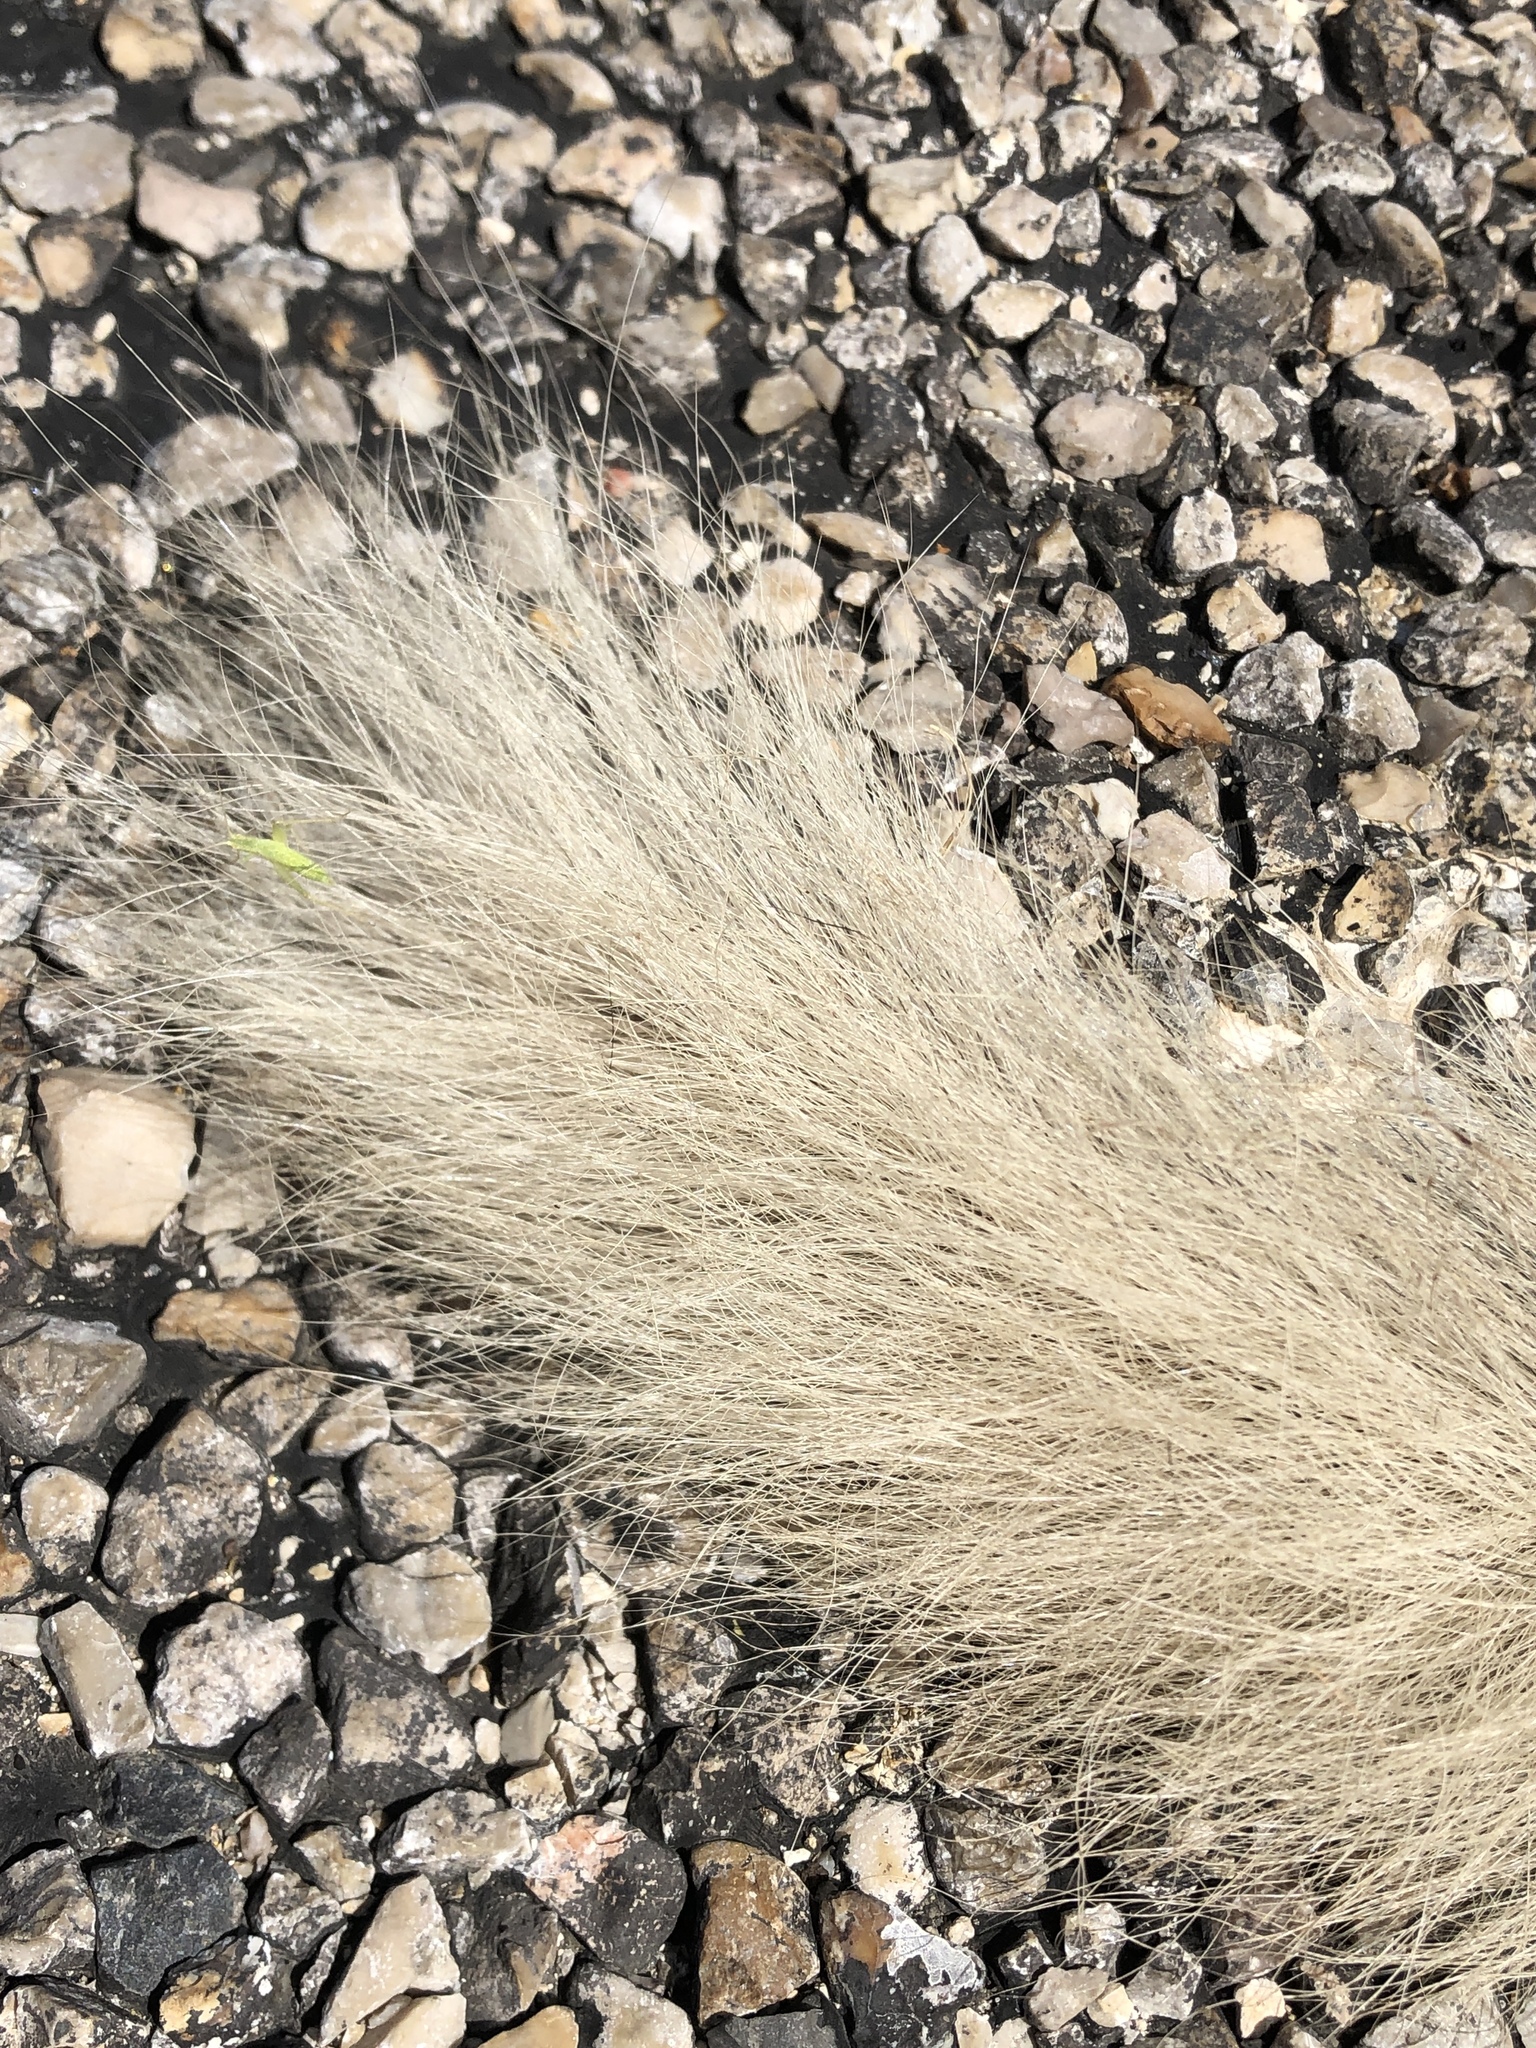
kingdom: Animalia
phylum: Chordata
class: Mammalia
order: Carnivora
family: Mephitidae
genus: Conepatus
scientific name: Conepatus leuconotus
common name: Eastern hog-nosed skunk
